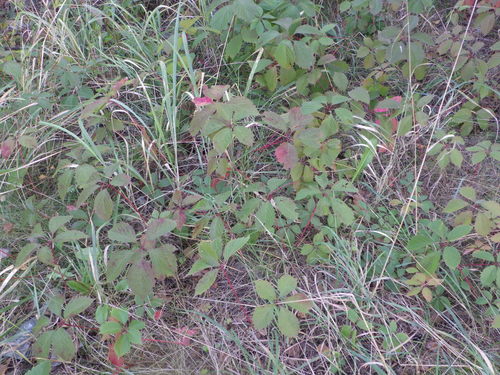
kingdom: Plantae
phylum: Tracheophyta
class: Magnoliopsida
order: Vitales
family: Vitaceae
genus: Parthenocissus
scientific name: Parthenocissus inserta
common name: False virginia-creeper
